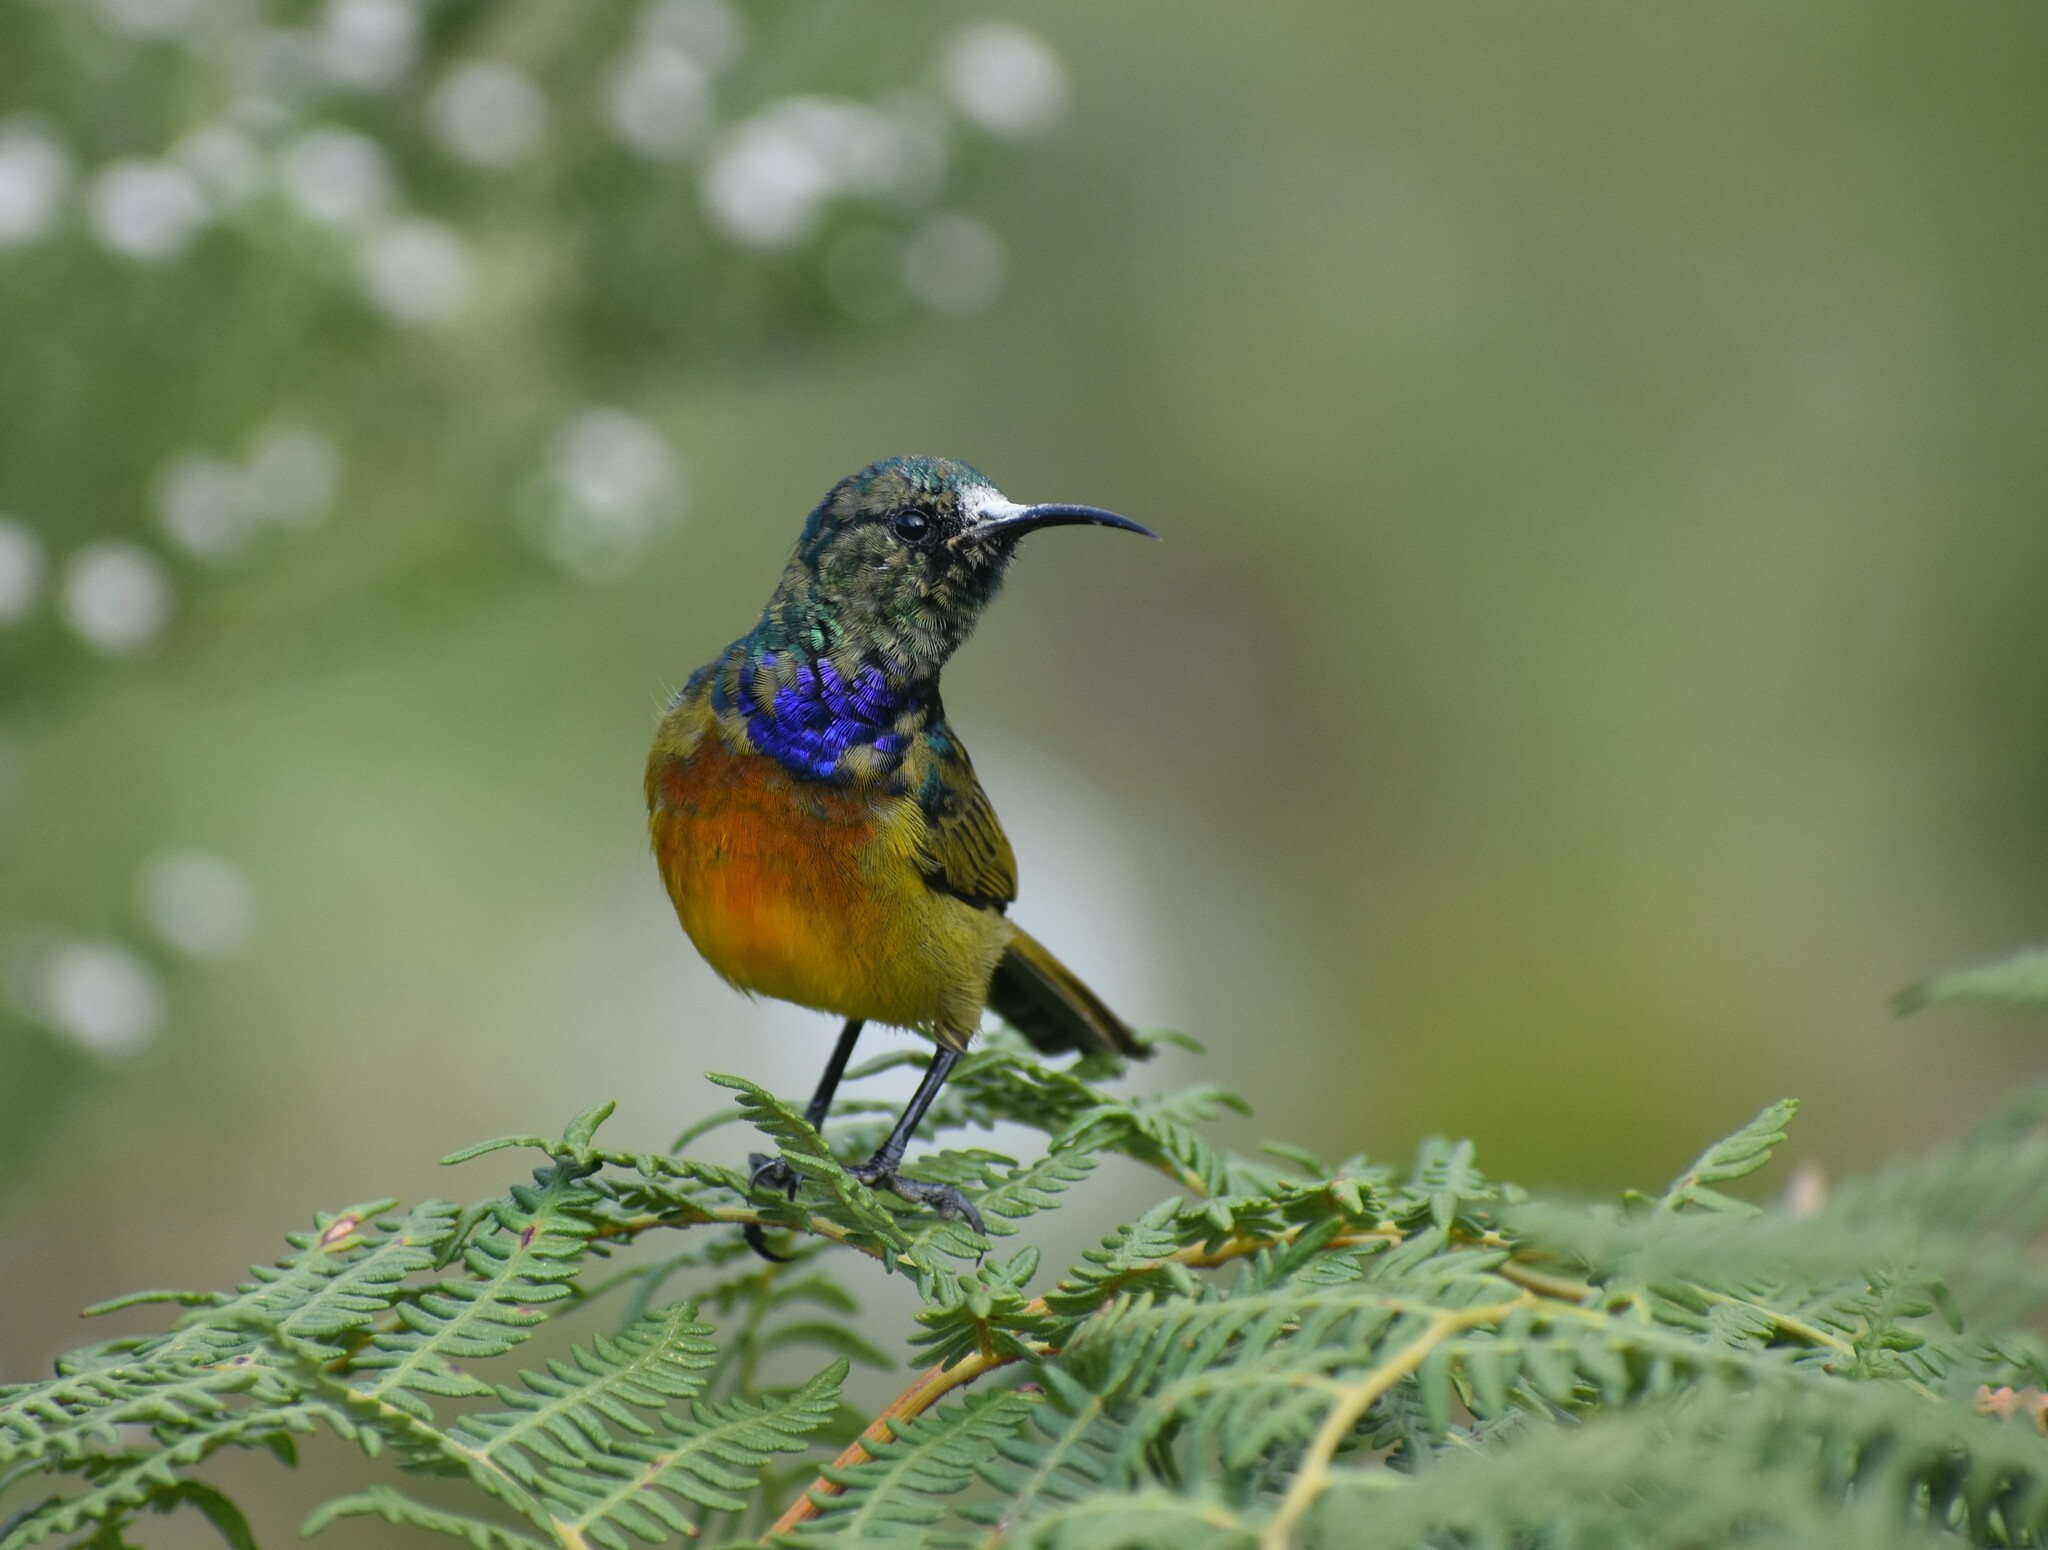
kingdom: Animalia
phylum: Chordata
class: Aves
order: Passeriformes
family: Nectariniidae
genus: Anthobaphes
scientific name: Anthobaphes violacea
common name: Orange-breasted sunbird
